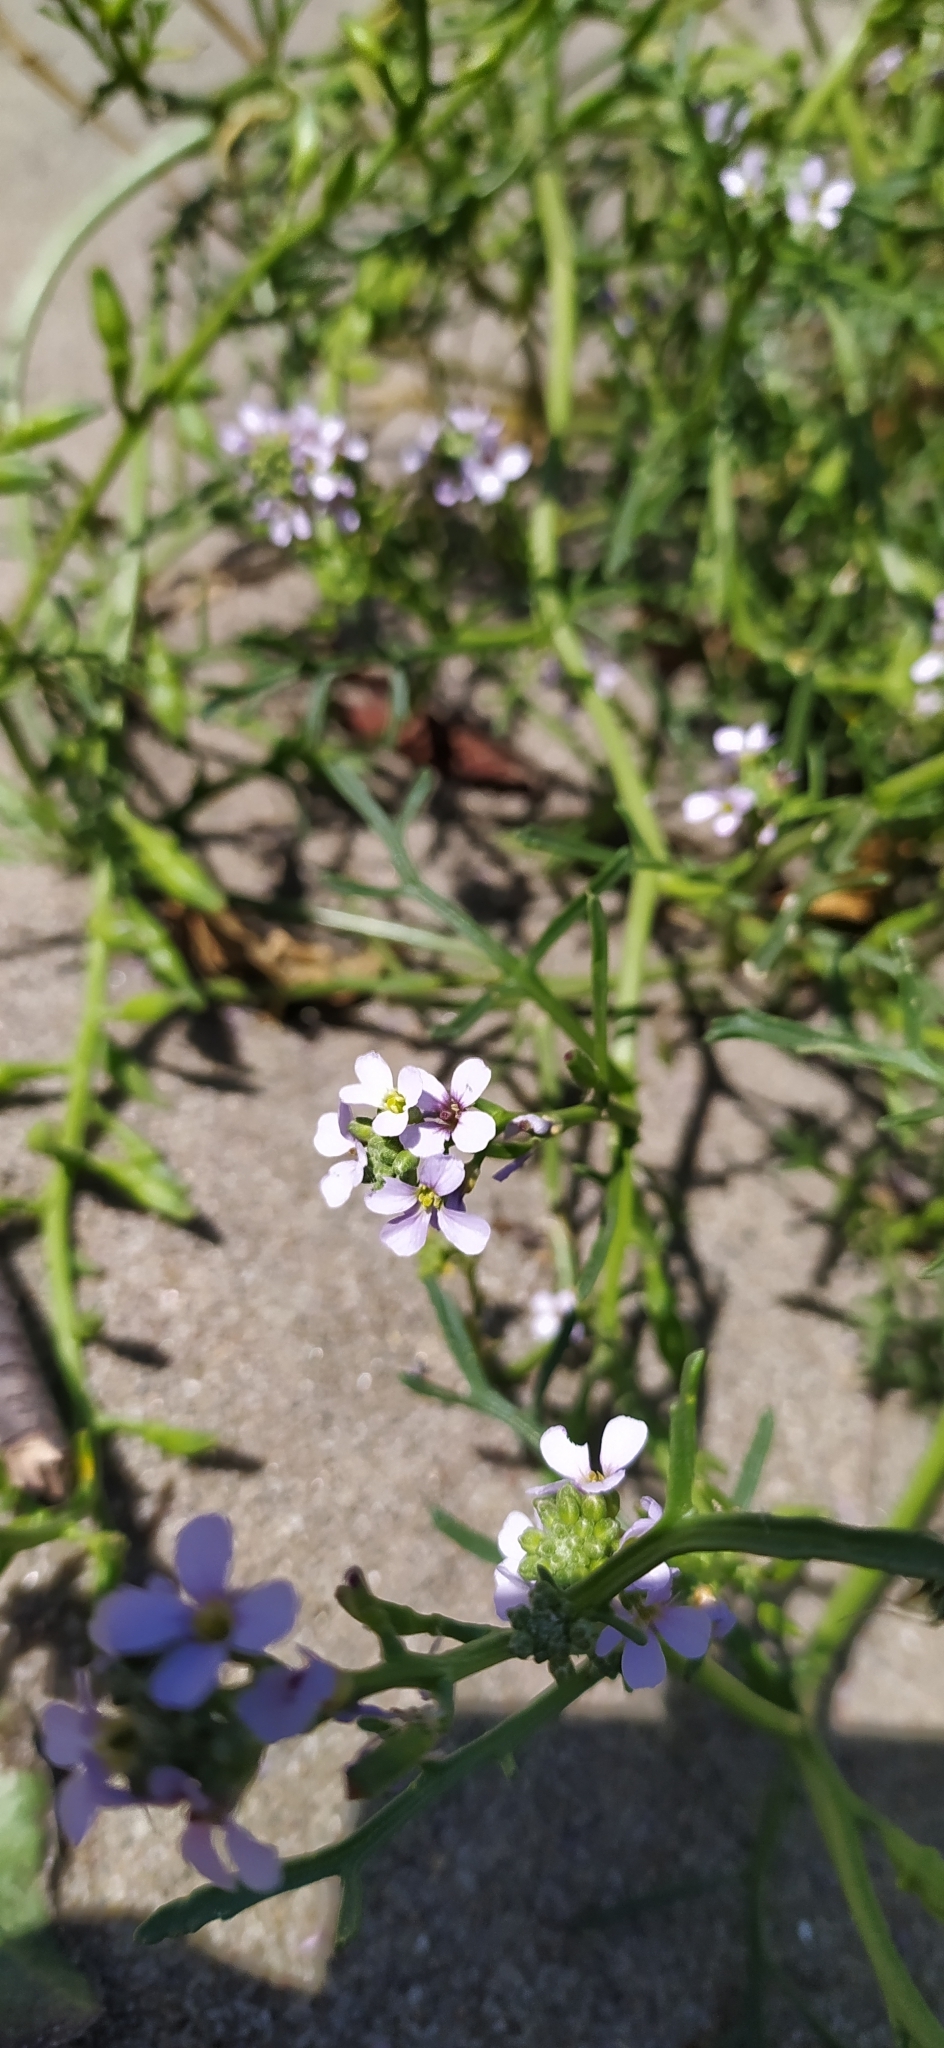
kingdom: Plantae
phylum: Tracheophyta
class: Magnoliopsida
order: Brassicales
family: Brassicaceae
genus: Cakile
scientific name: Cakile maritima
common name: Sea rocket
